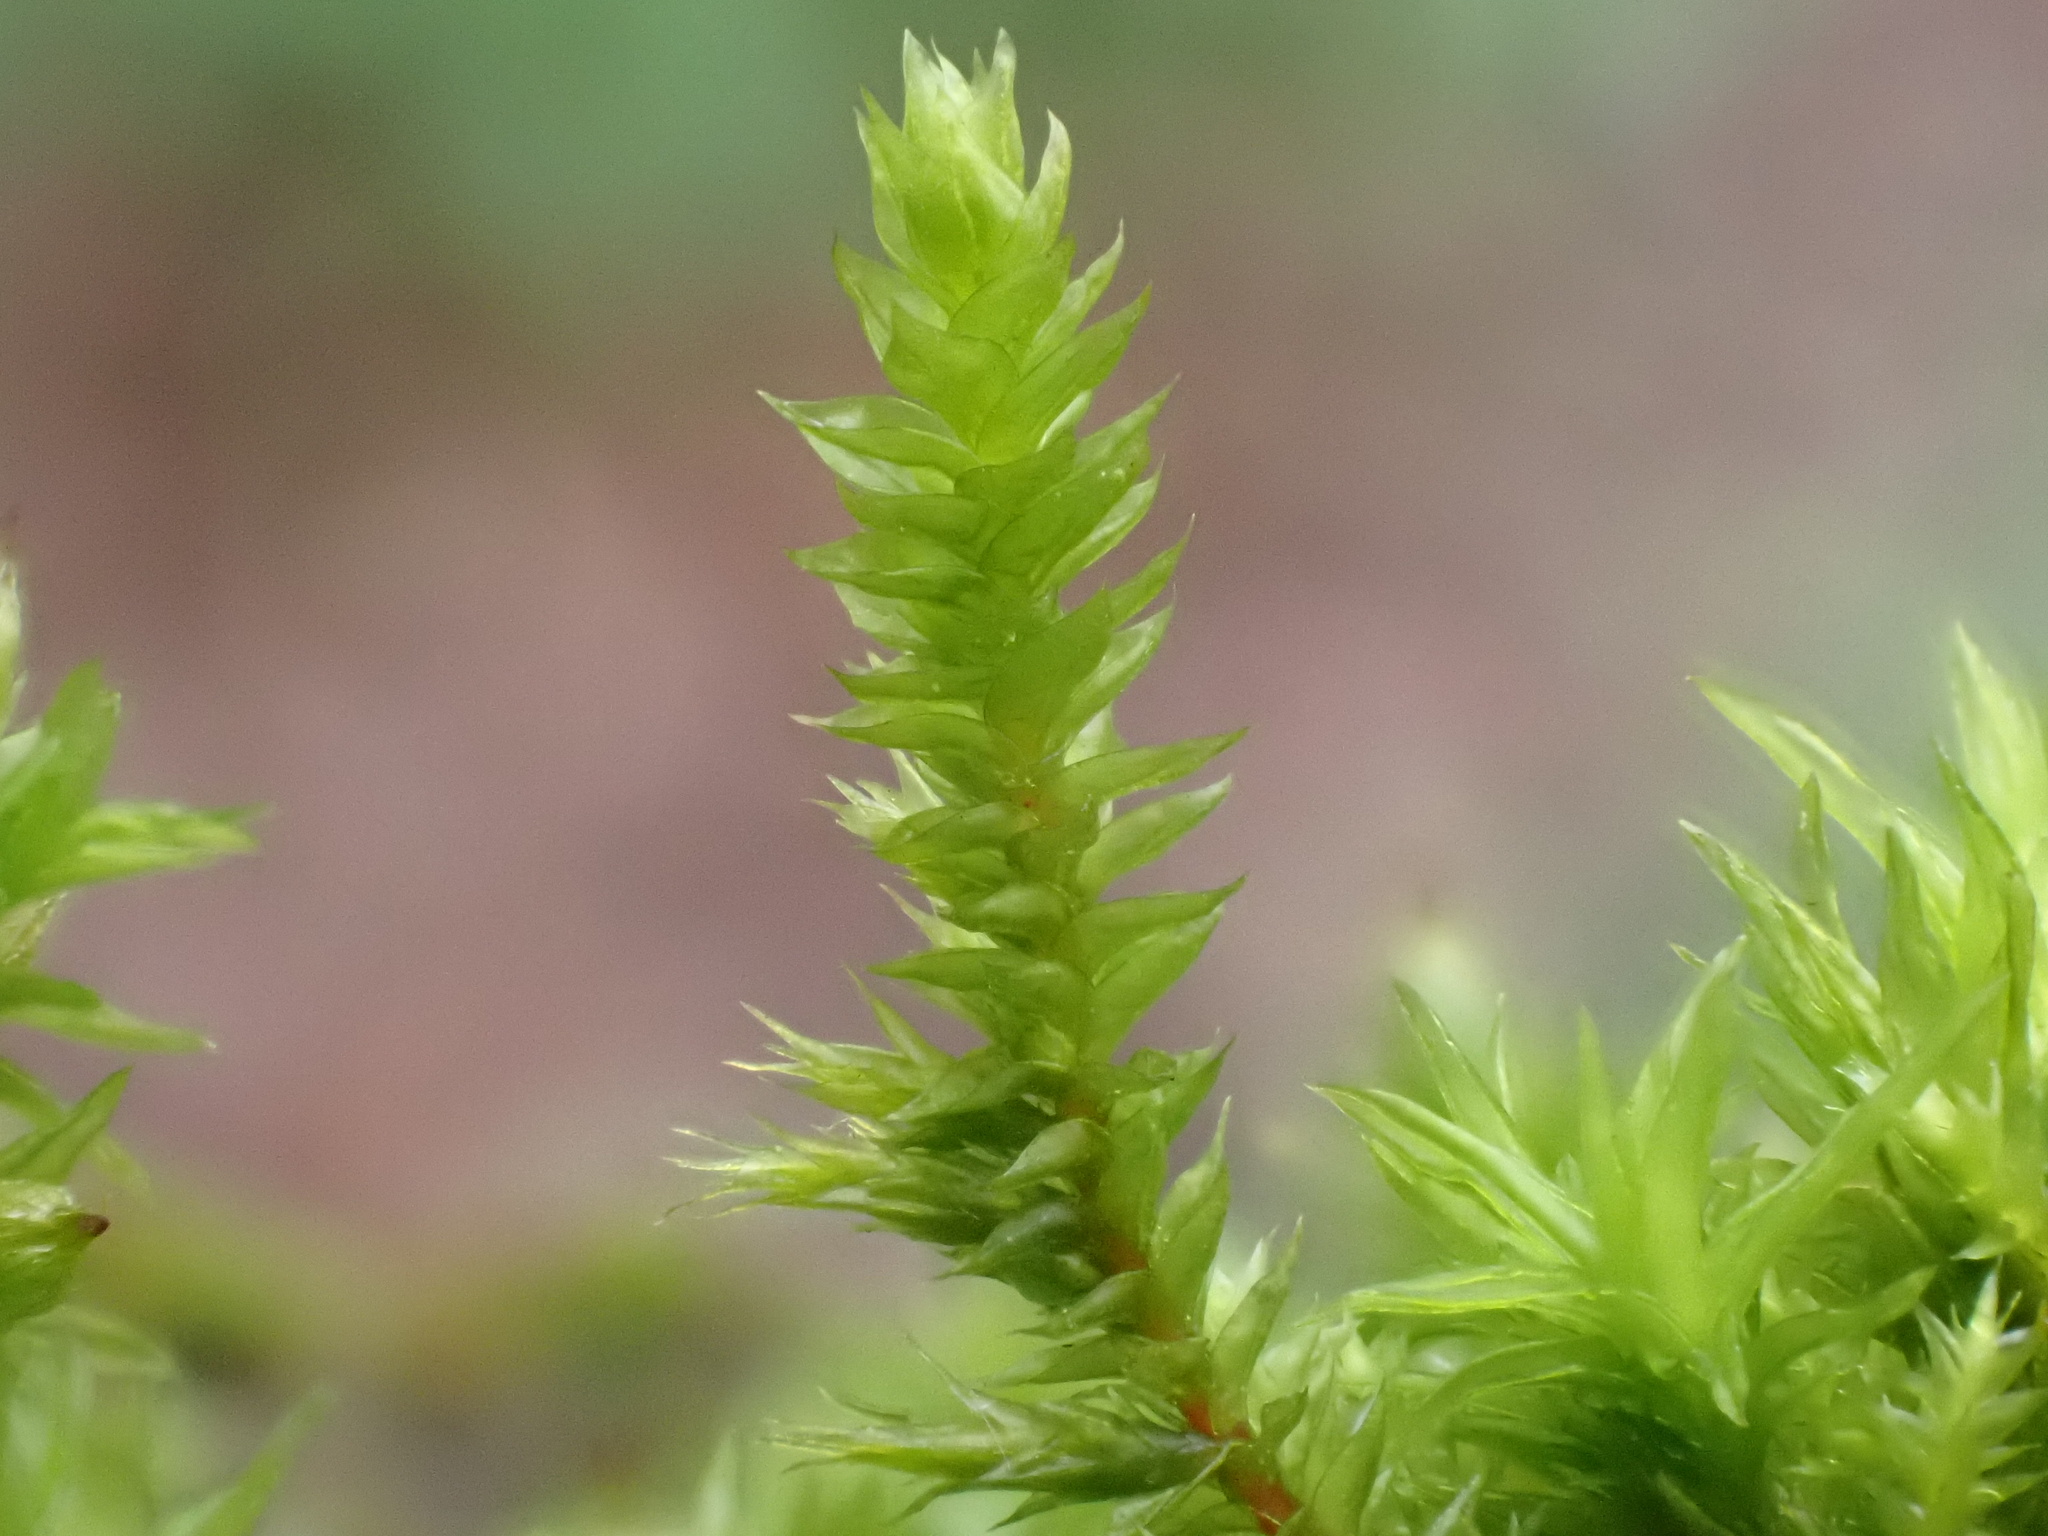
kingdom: Plantae
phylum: Bryophyta
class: Bryopsida
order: Hypnales
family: Cryphaeaceae
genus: Cryphaea
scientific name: Cryphaea heteromalla
